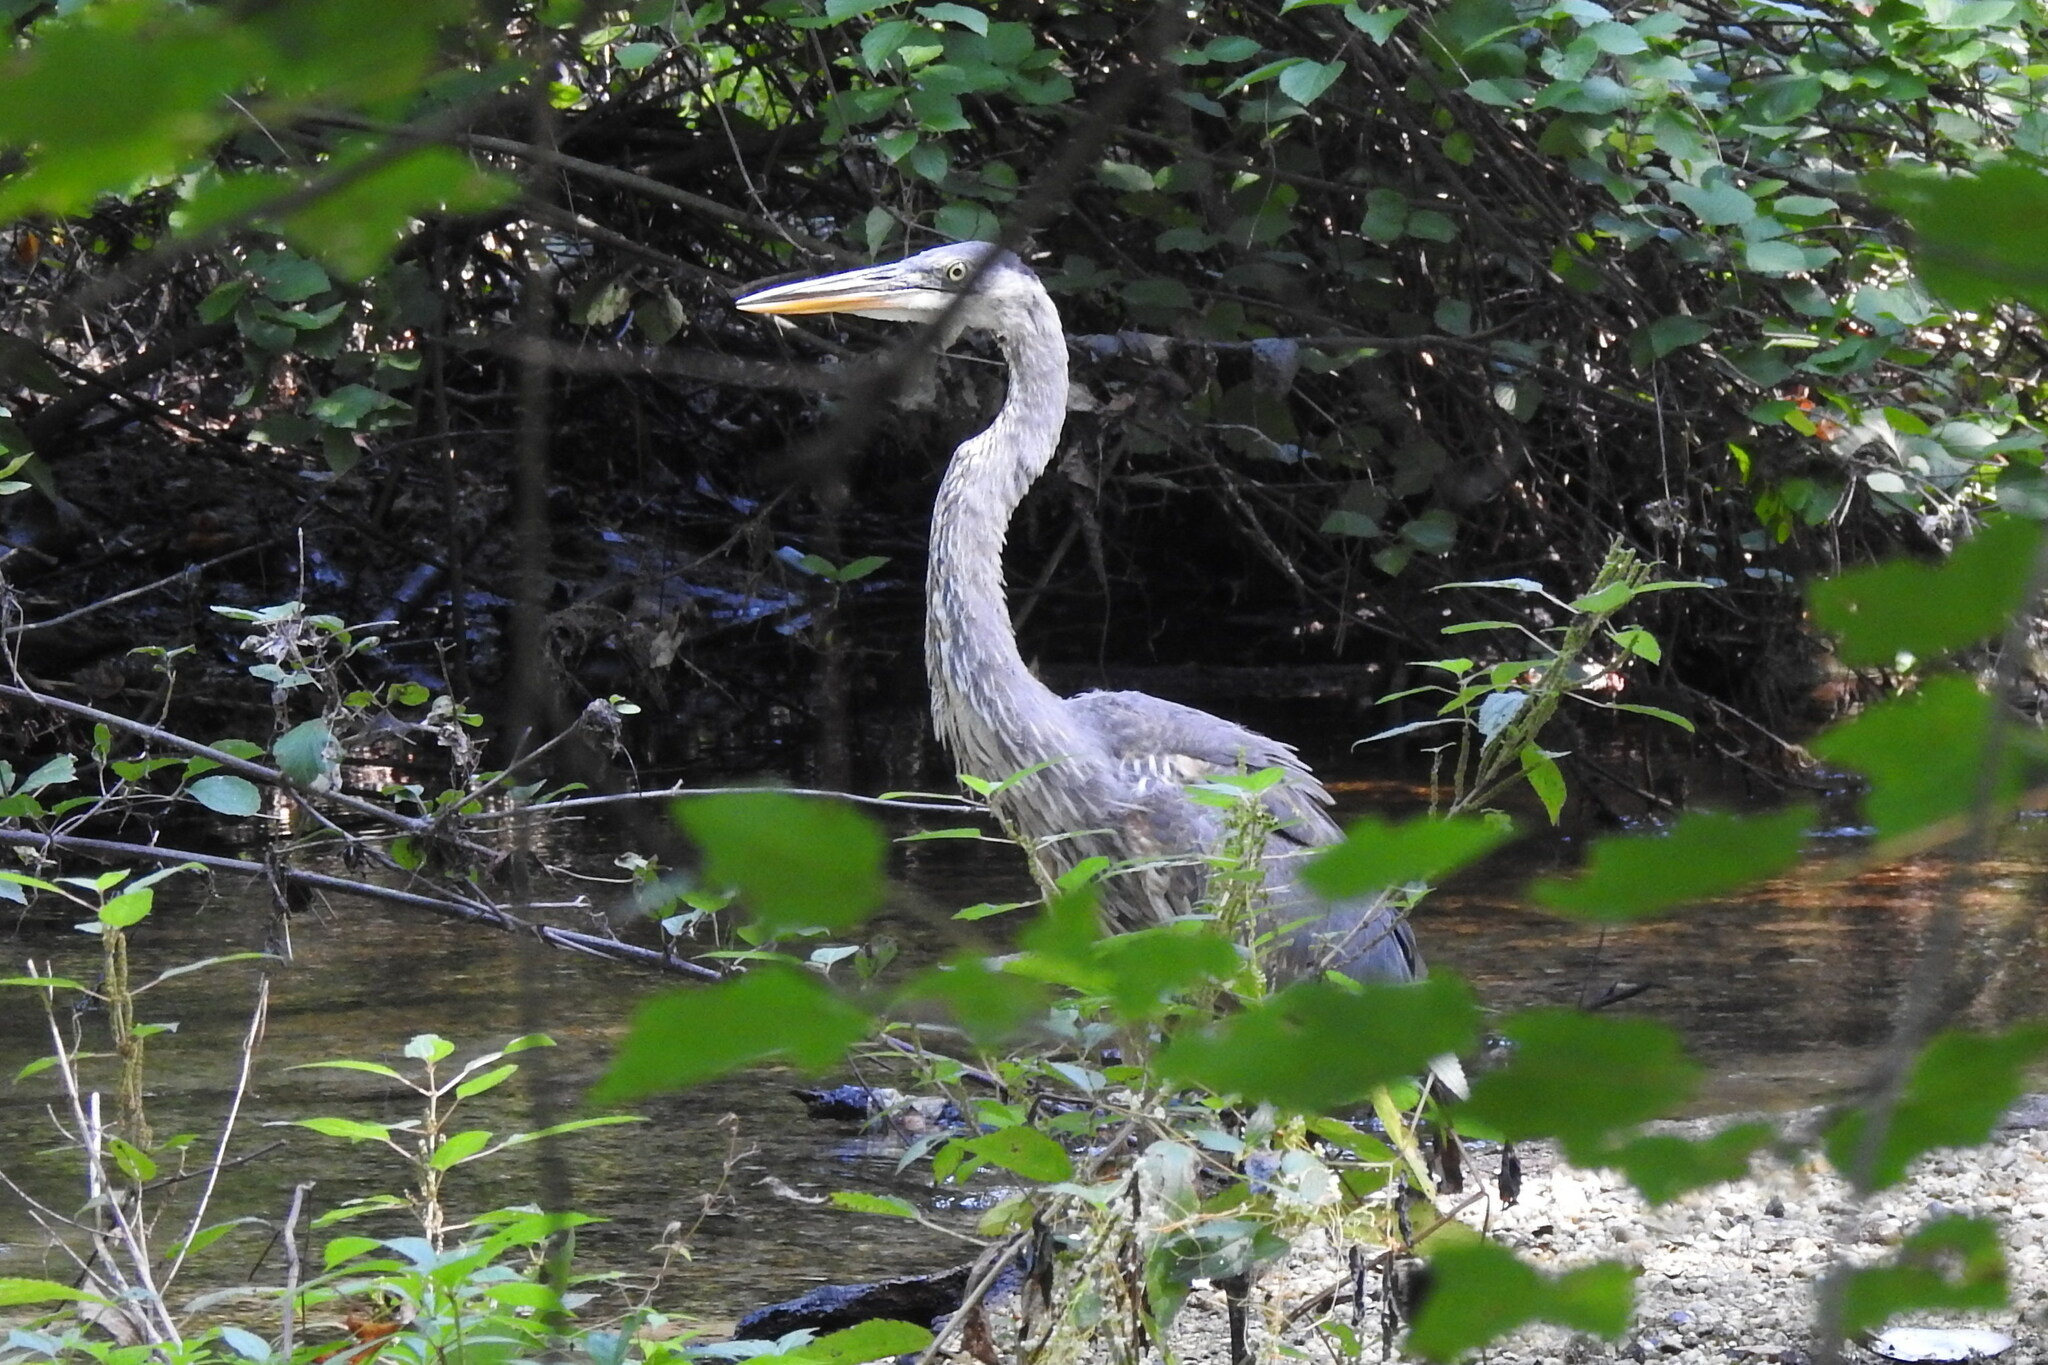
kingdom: Animalia
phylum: Chordata
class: Aves
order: Pelecaniformes
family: Ardeidae
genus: Ardea
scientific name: Ardea herodias
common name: Great blue heron
